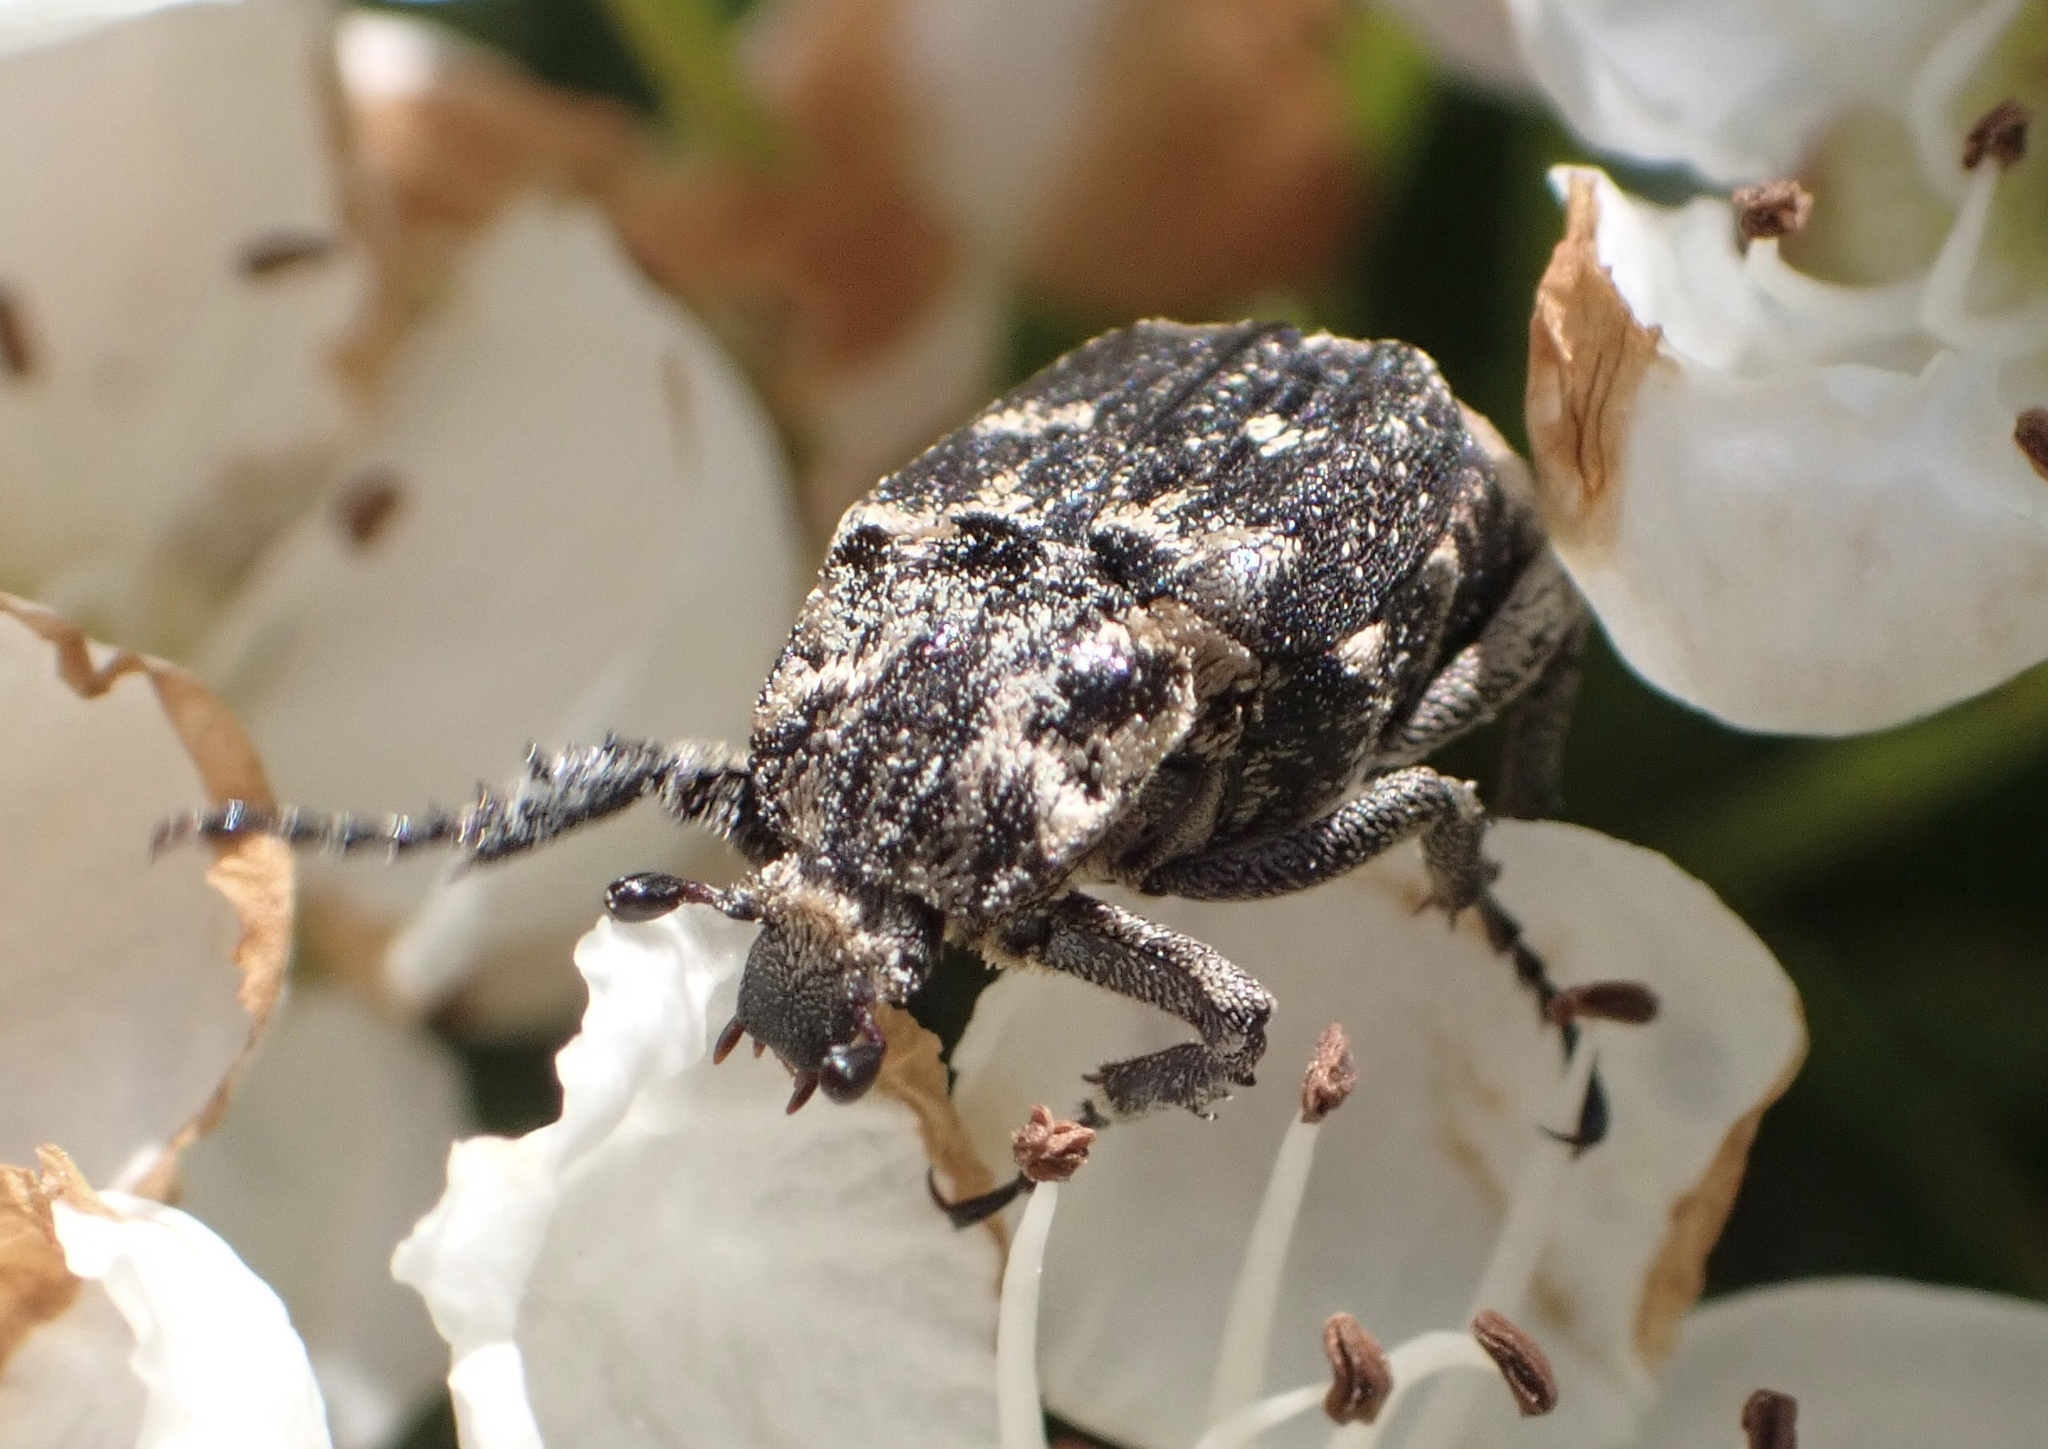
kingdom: Animalia
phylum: Arthropoda
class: Insecta
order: Coleoptera
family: Scarabaeidae
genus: Valgus
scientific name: Valgus hemipterus
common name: Bug flower chafer
